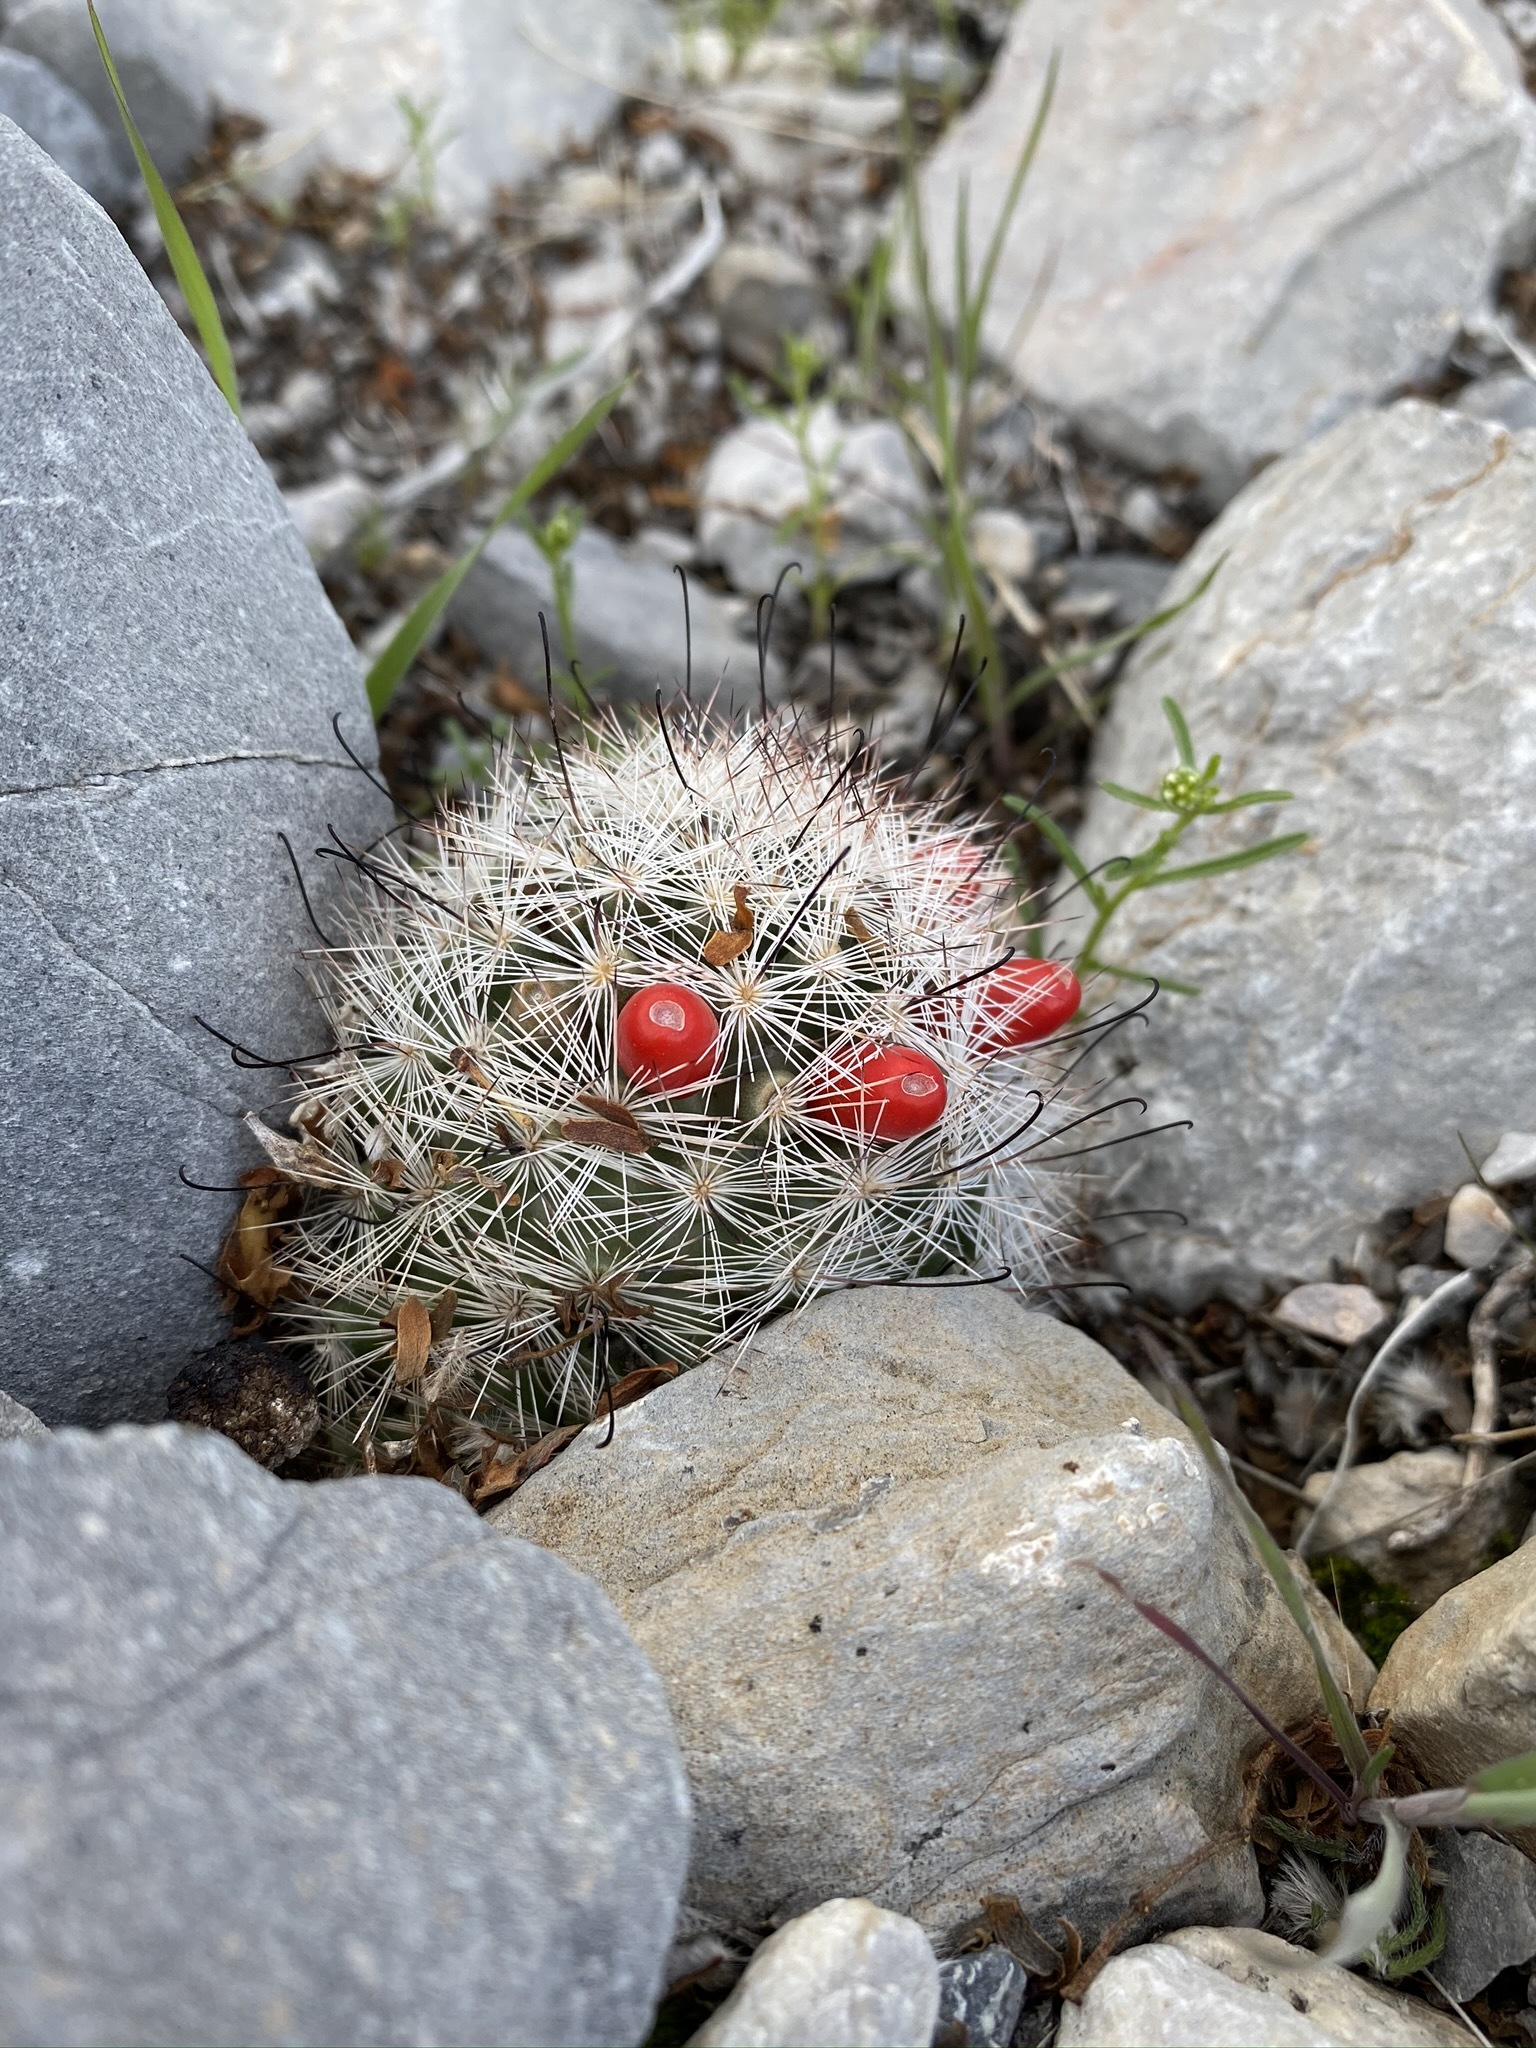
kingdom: Plantae
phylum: Tracheophyta
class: Magnoliopsida
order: Caryophyllales
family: Cactaceae
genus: Cochemiea
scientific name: Cochemiea tetrancistra
